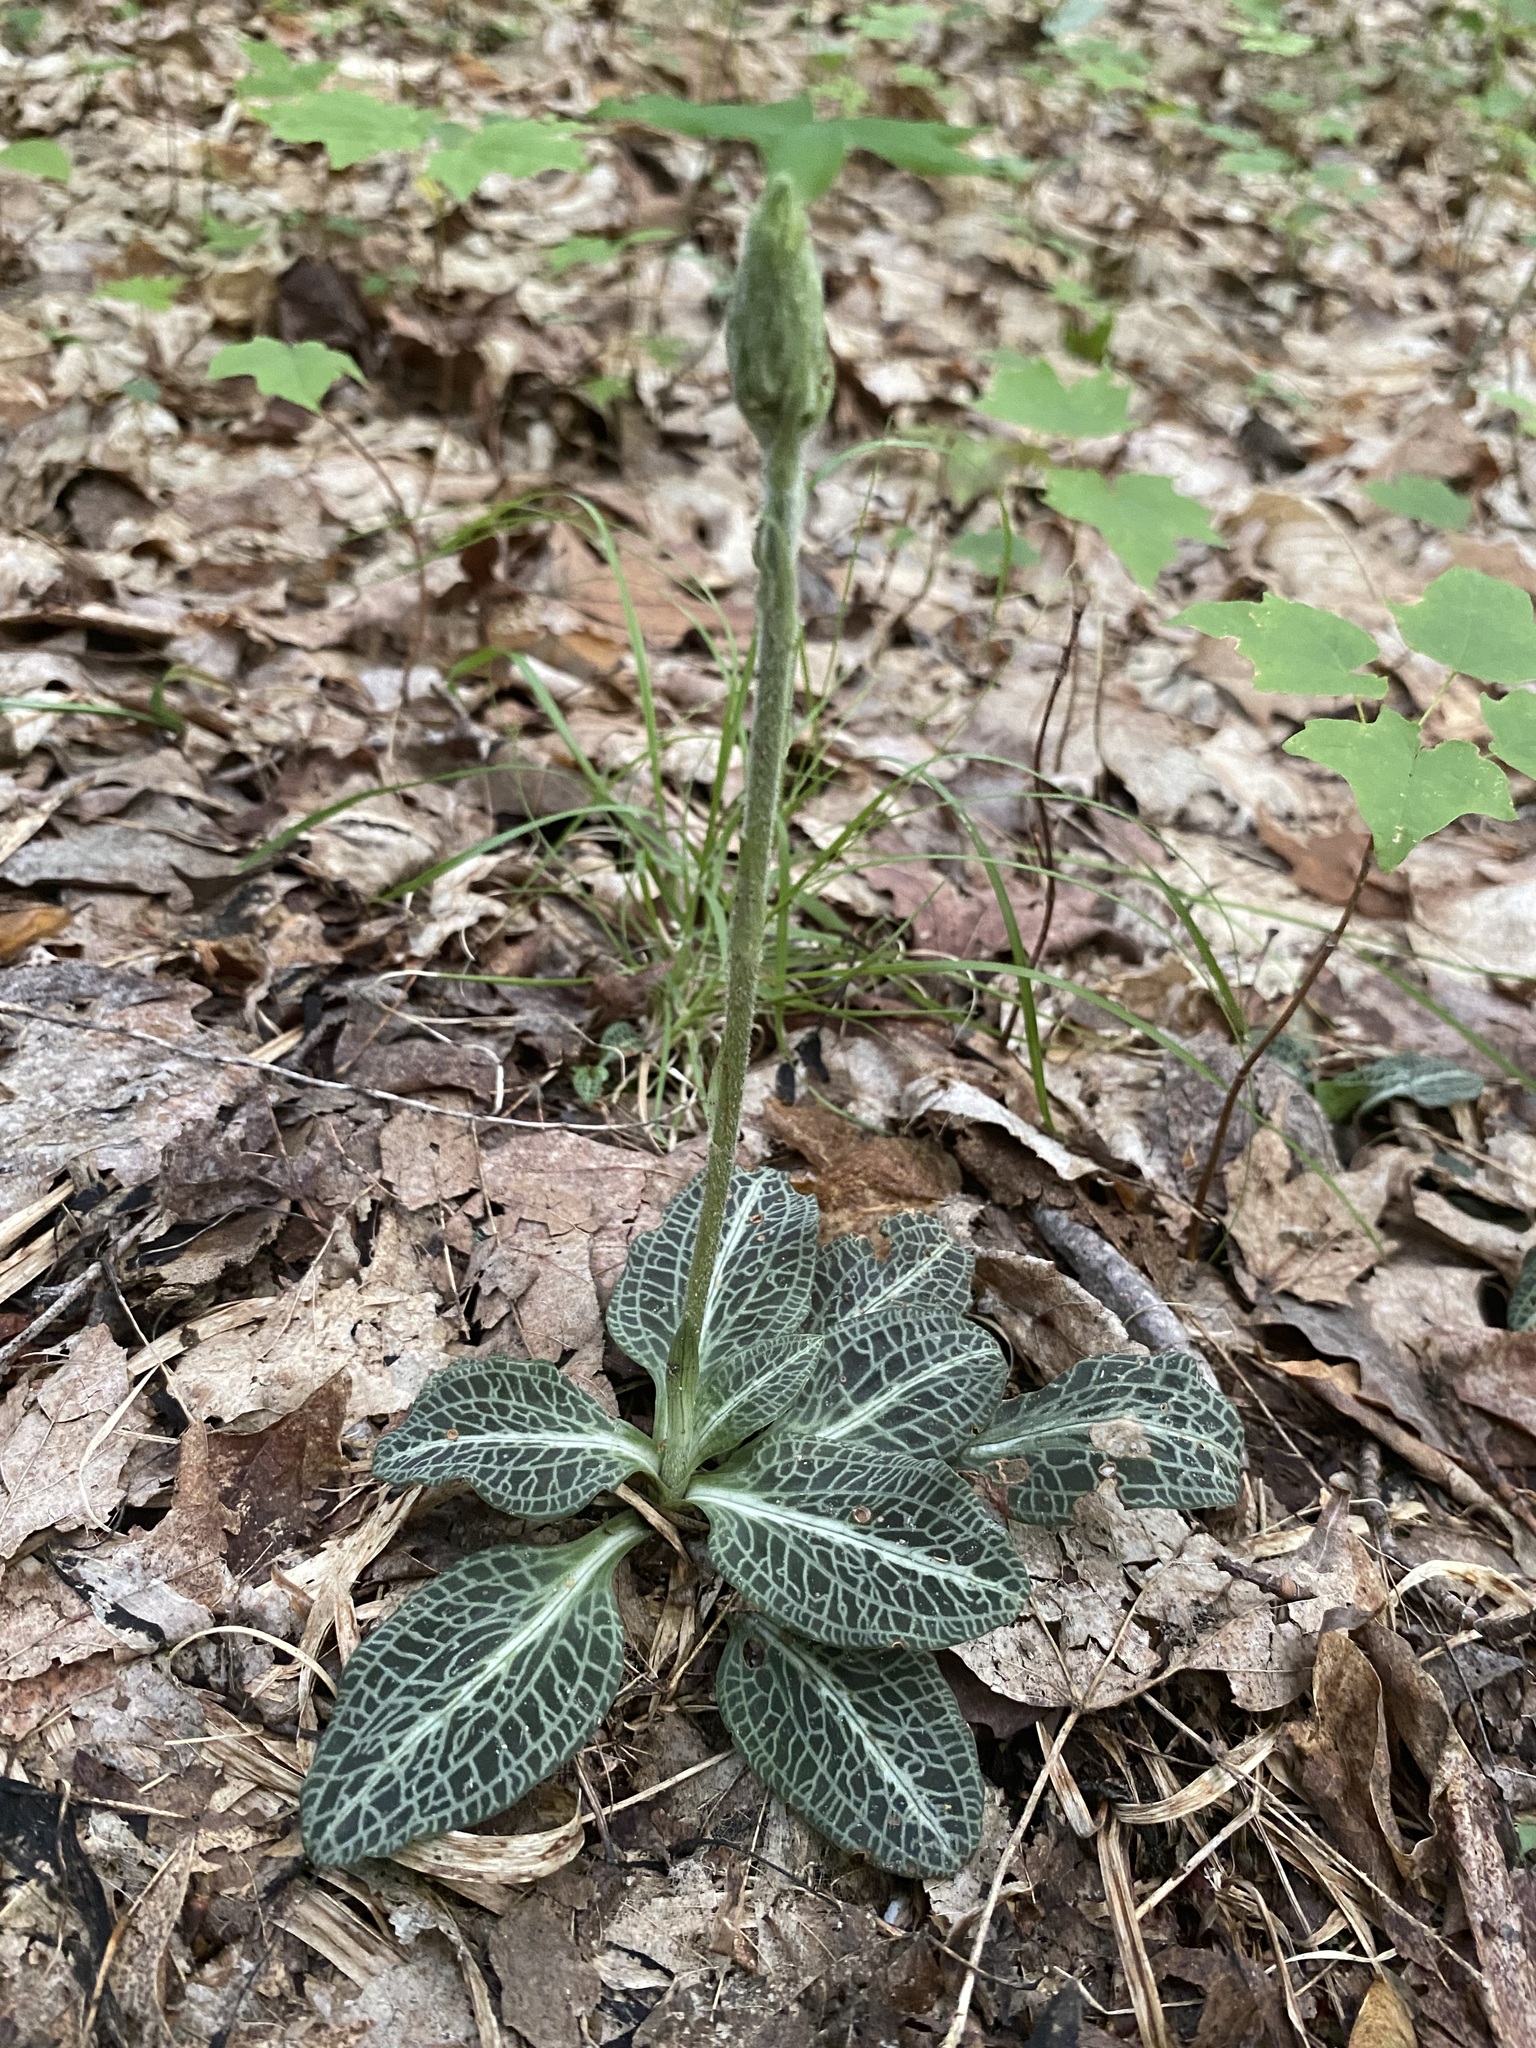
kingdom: Plantae
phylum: Tracheophyta
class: Liliopsida
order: Asparagales
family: Orchidaceae
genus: Goodyera
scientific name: Goodyera pubescens
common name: Downy rattlesnake-plantain
